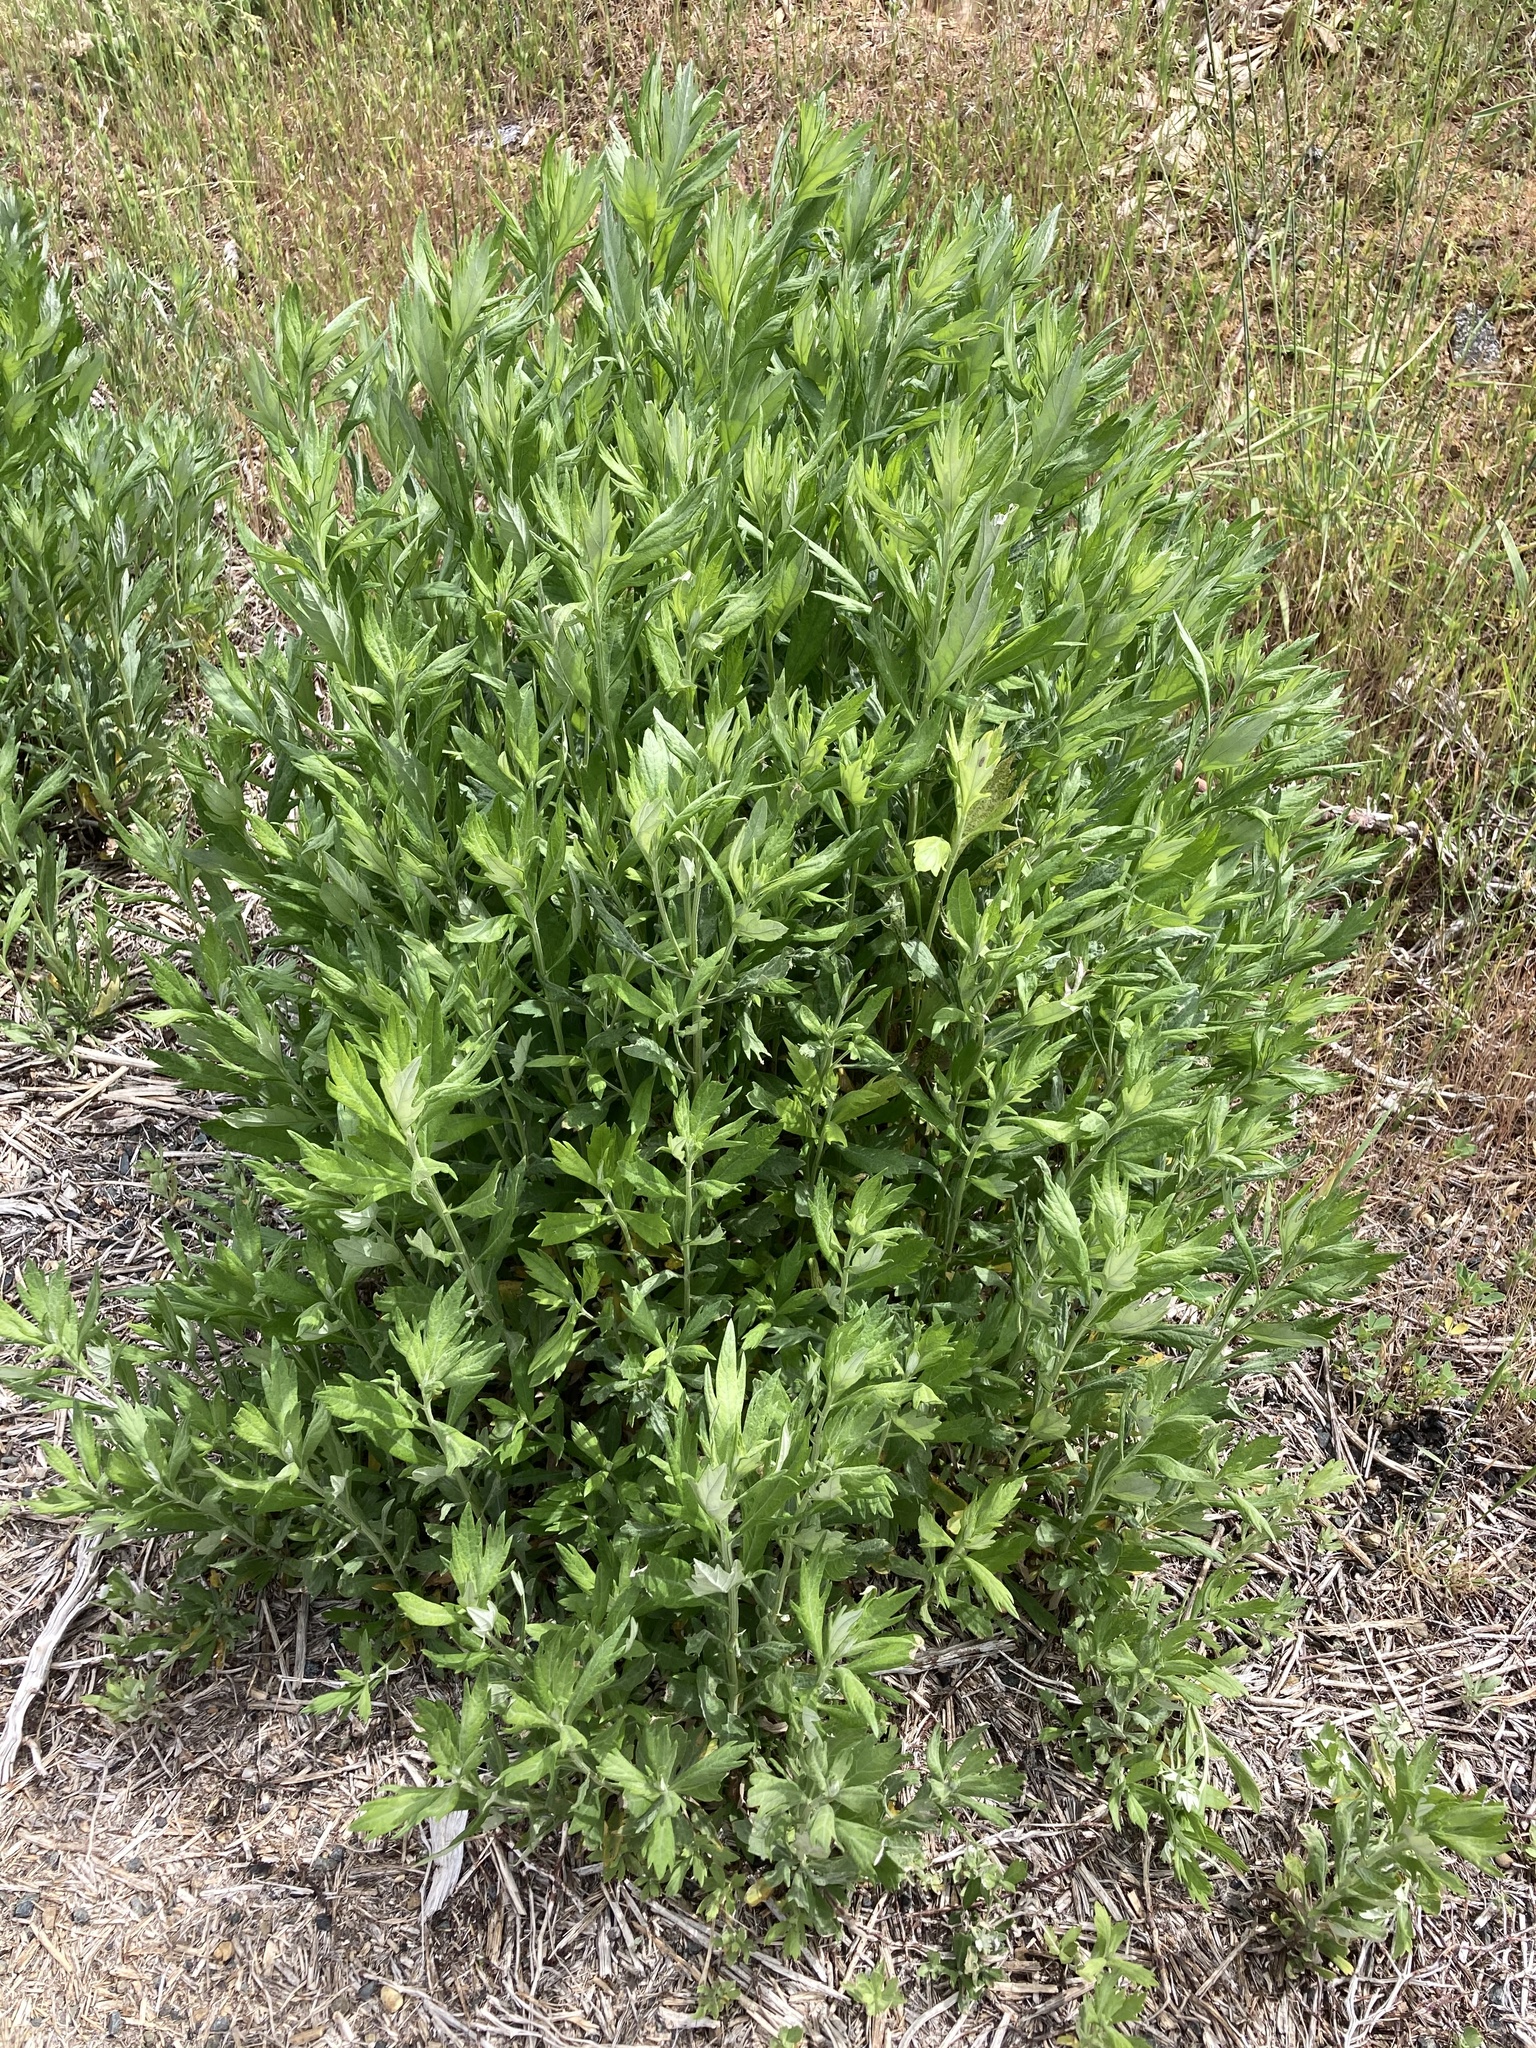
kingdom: Plantae
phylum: Tracheophyta
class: Magnoliopsida
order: Asterales
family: Asteraceae
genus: Artemisia
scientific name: Artemisia douglasiana
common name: Northwest mugwort
